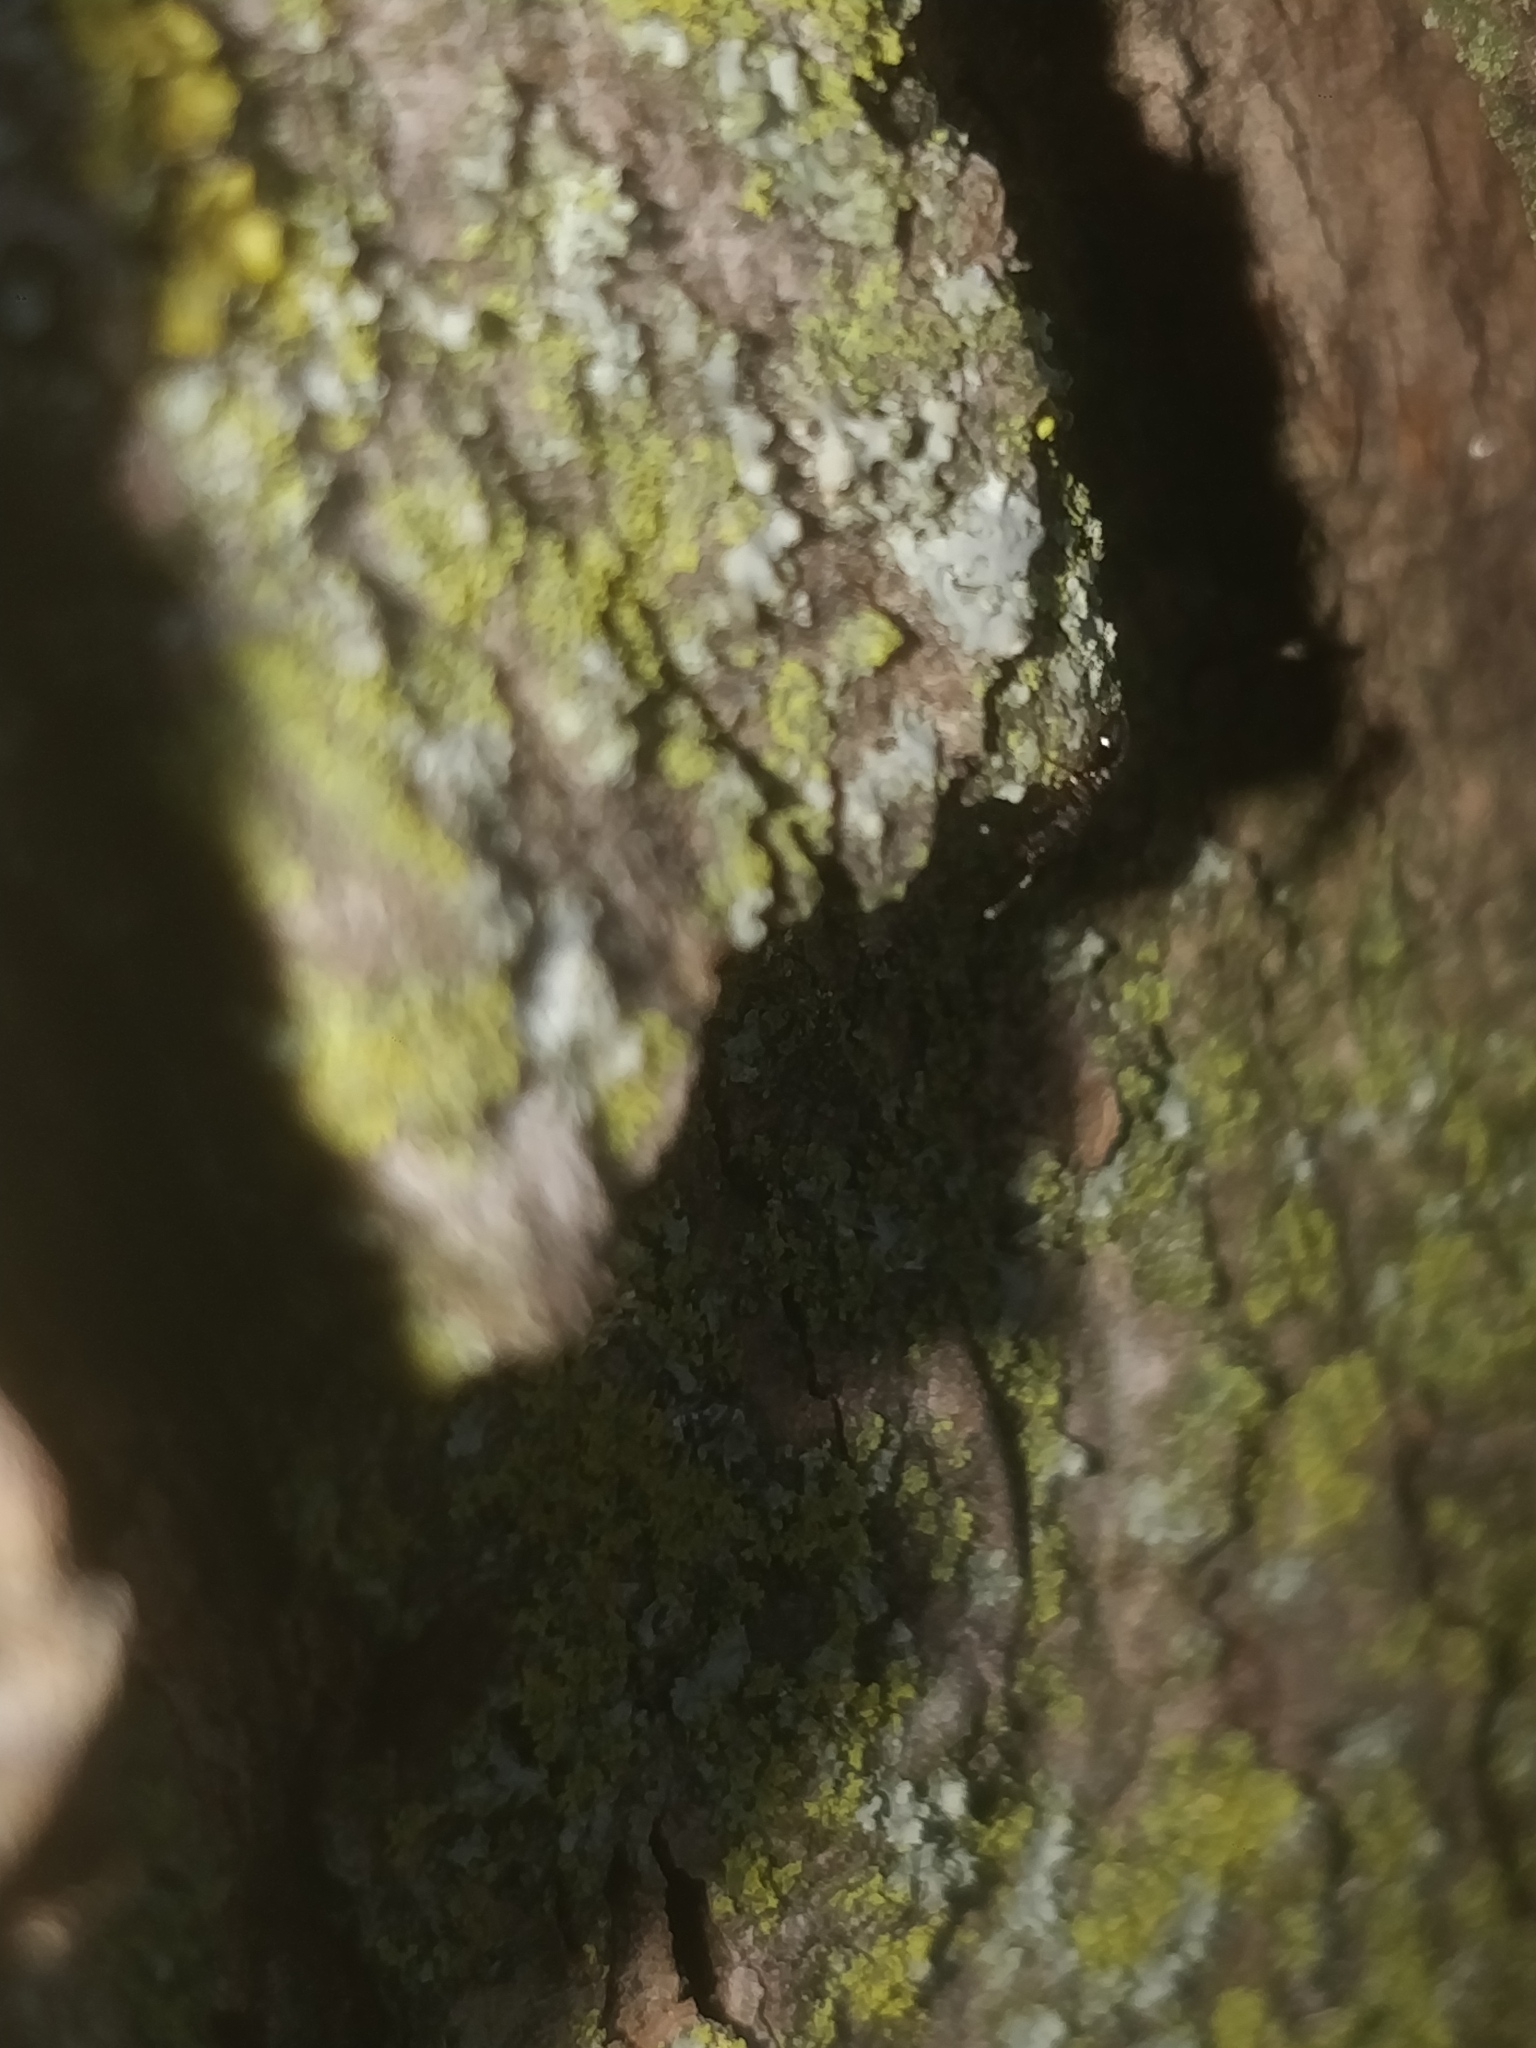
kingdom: Animalia
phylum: Arthropoda
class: Insecta
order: Hymenoptera
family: Formicidae
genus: Leptothorax
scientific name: Leptothorax schaumii
